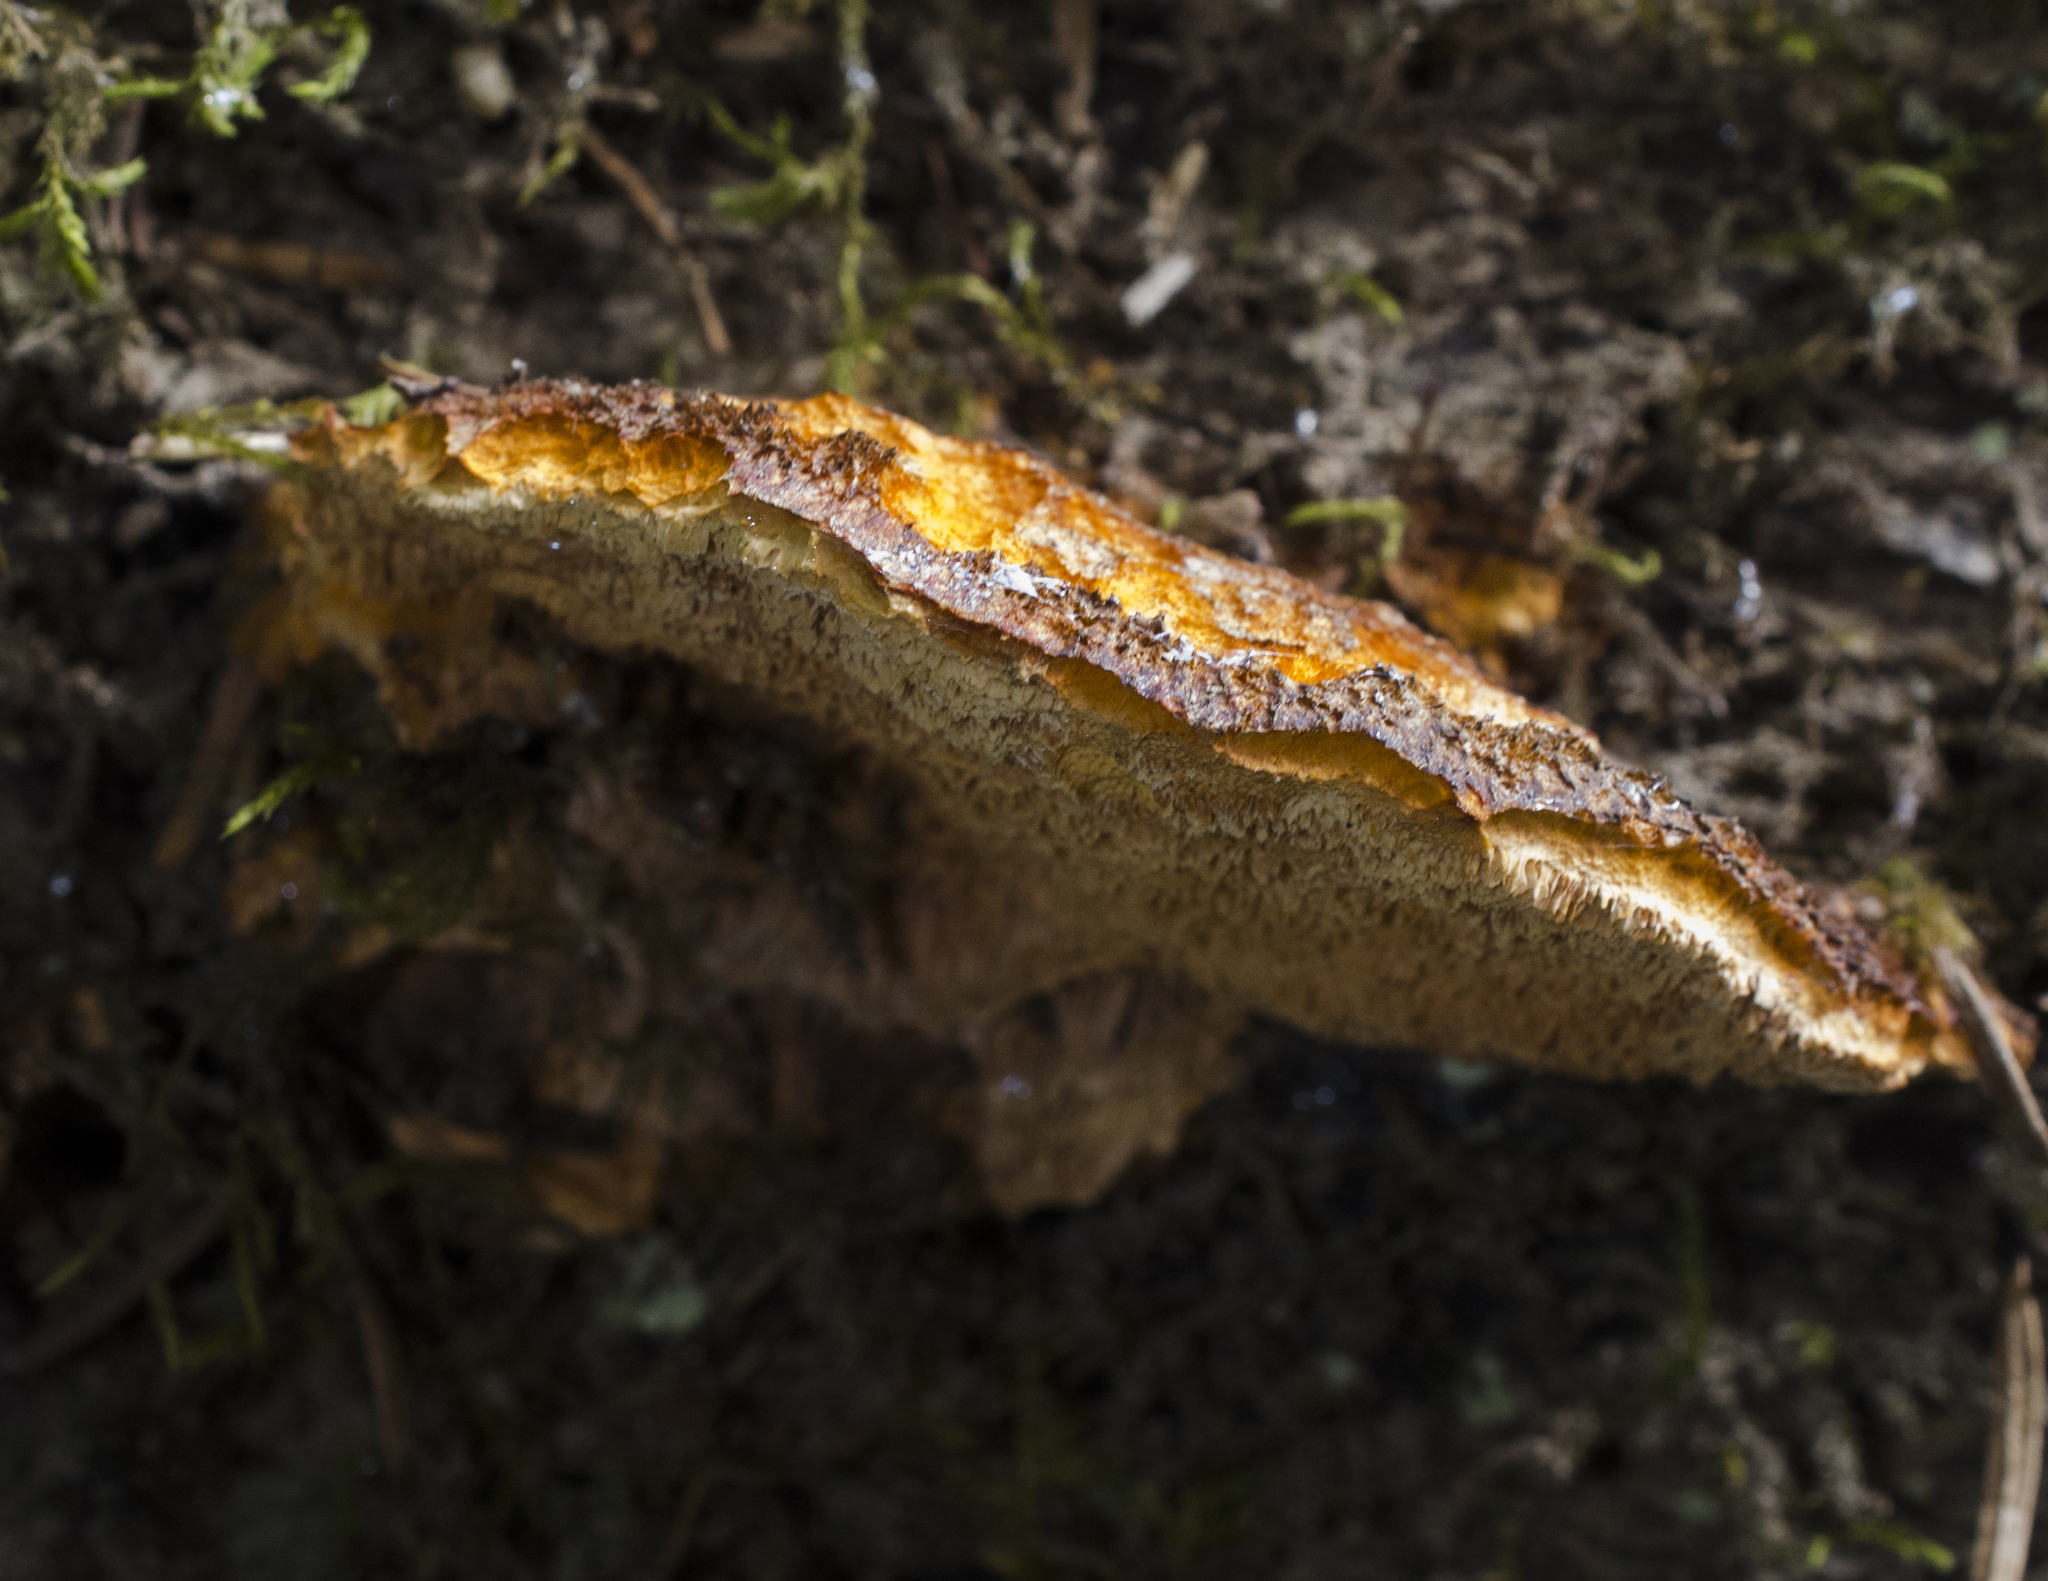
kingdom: Fungi
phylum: Basidiomycota
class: Agaricomycetes
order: Polyporales
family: Pycnoporellaceae
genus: Pycnoporellus
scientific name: Pycnoporellus fulgens
